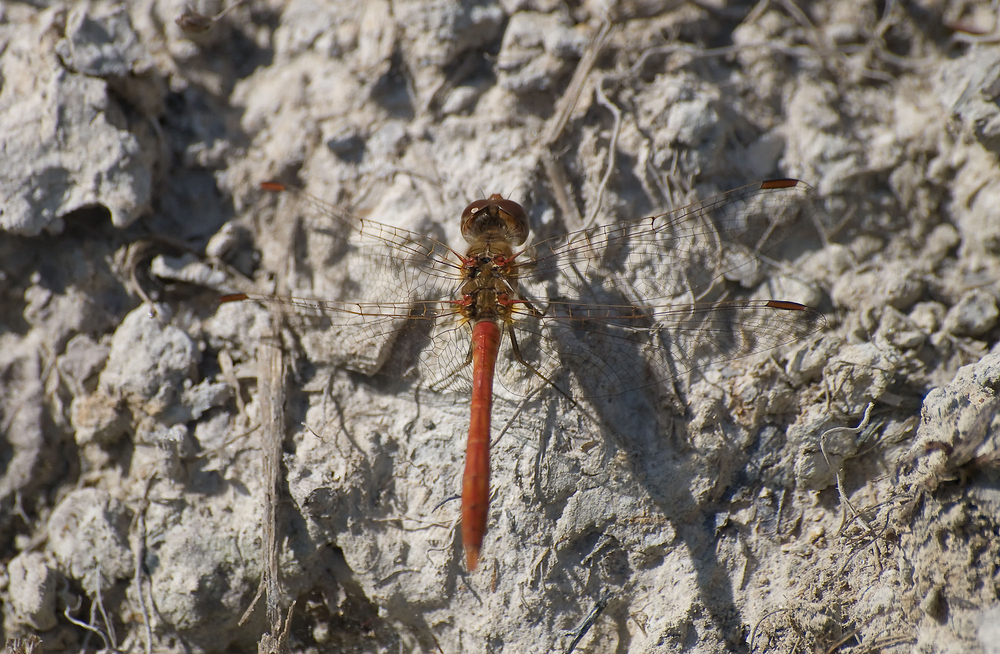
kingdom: Animalia
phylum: Arthropoda
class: Insecta
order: Odonata
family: Libellulidae
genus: Sympetrum
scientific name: Sympetrum meridionale
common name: Southern darter
